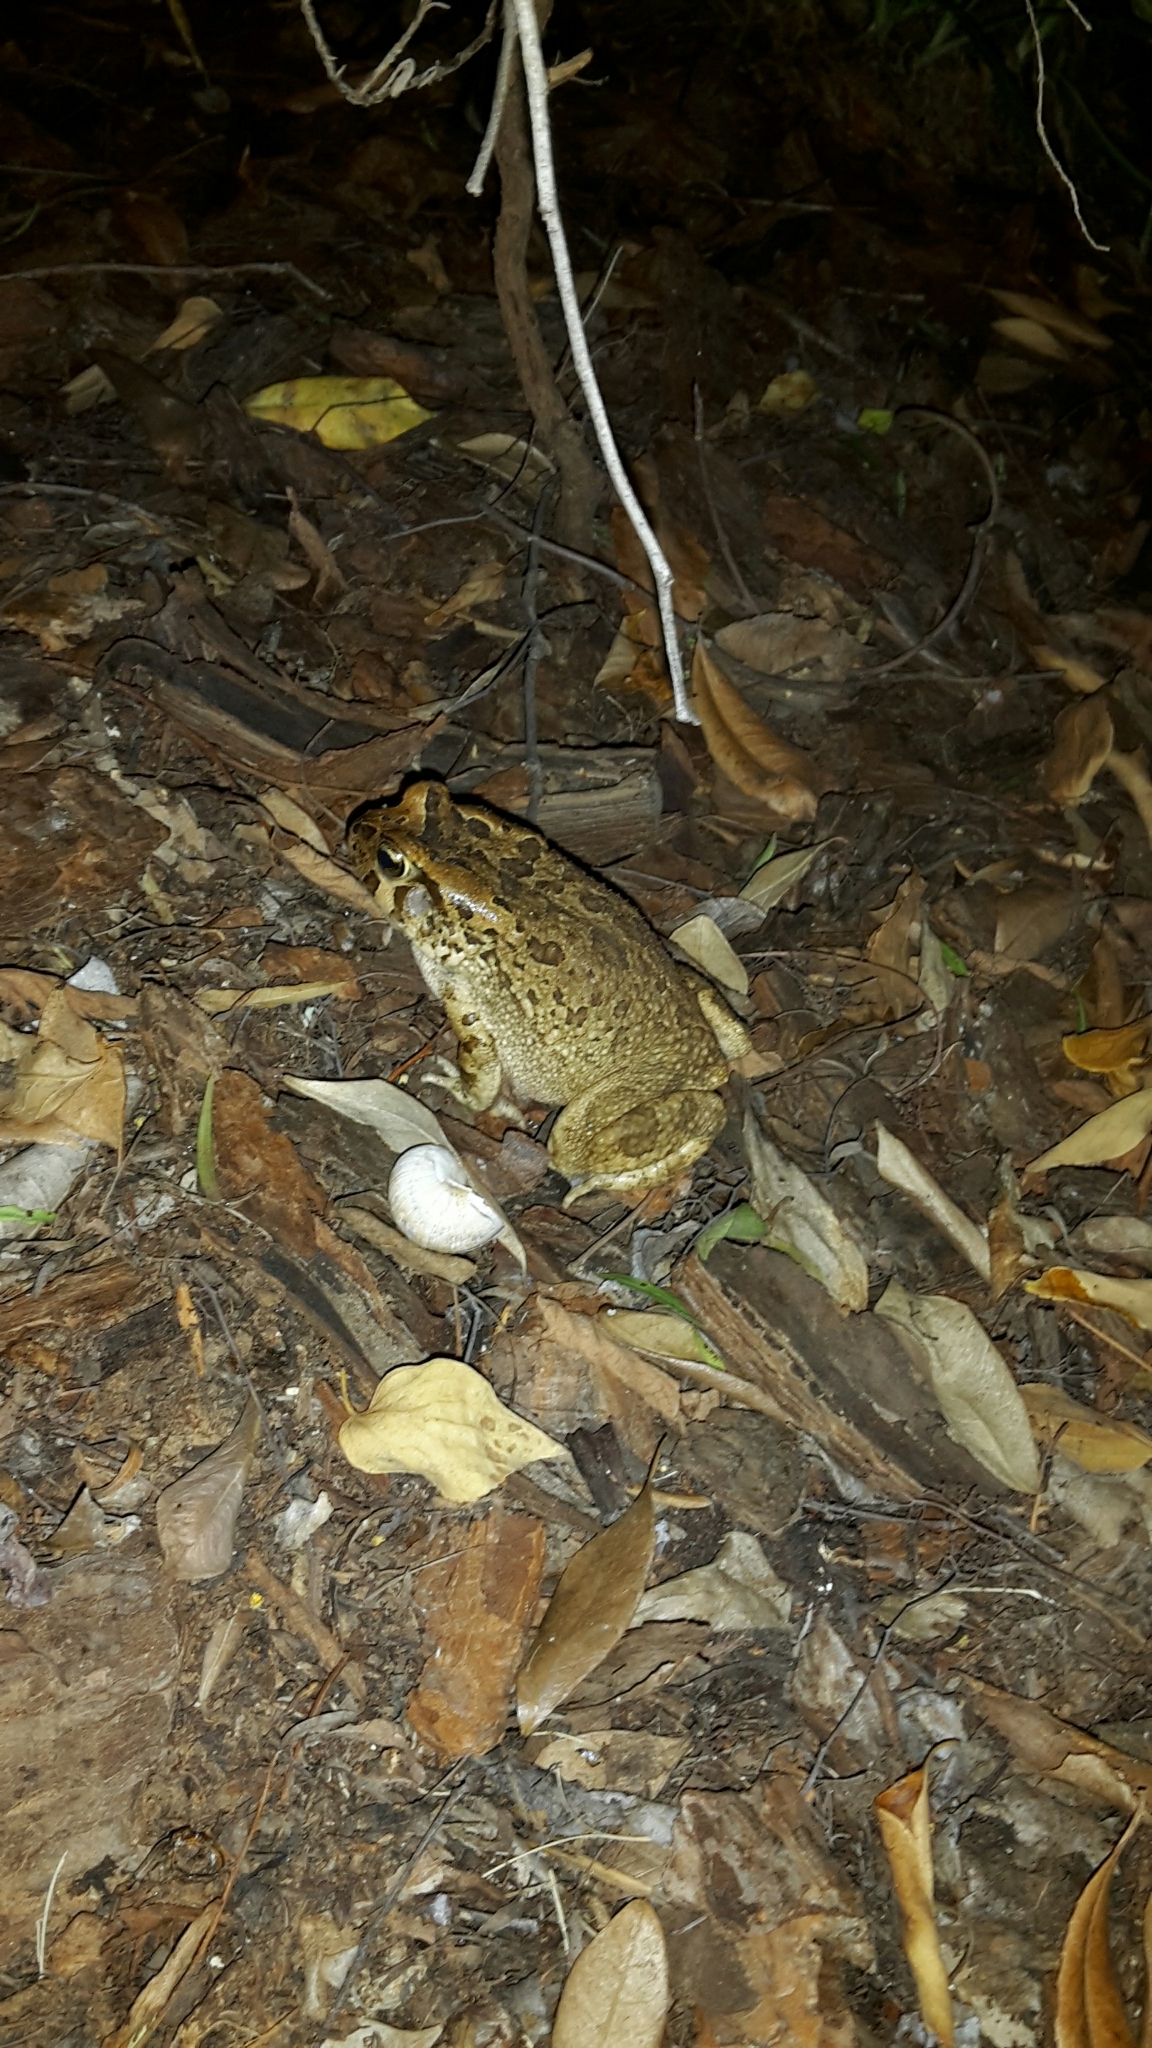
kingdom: Animalia
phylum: Chordata
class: Amphibia
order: Anura
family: Bufonidae
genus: Sclerophrys
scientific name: Sclerophrys capensis
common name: Ranger’s toad
